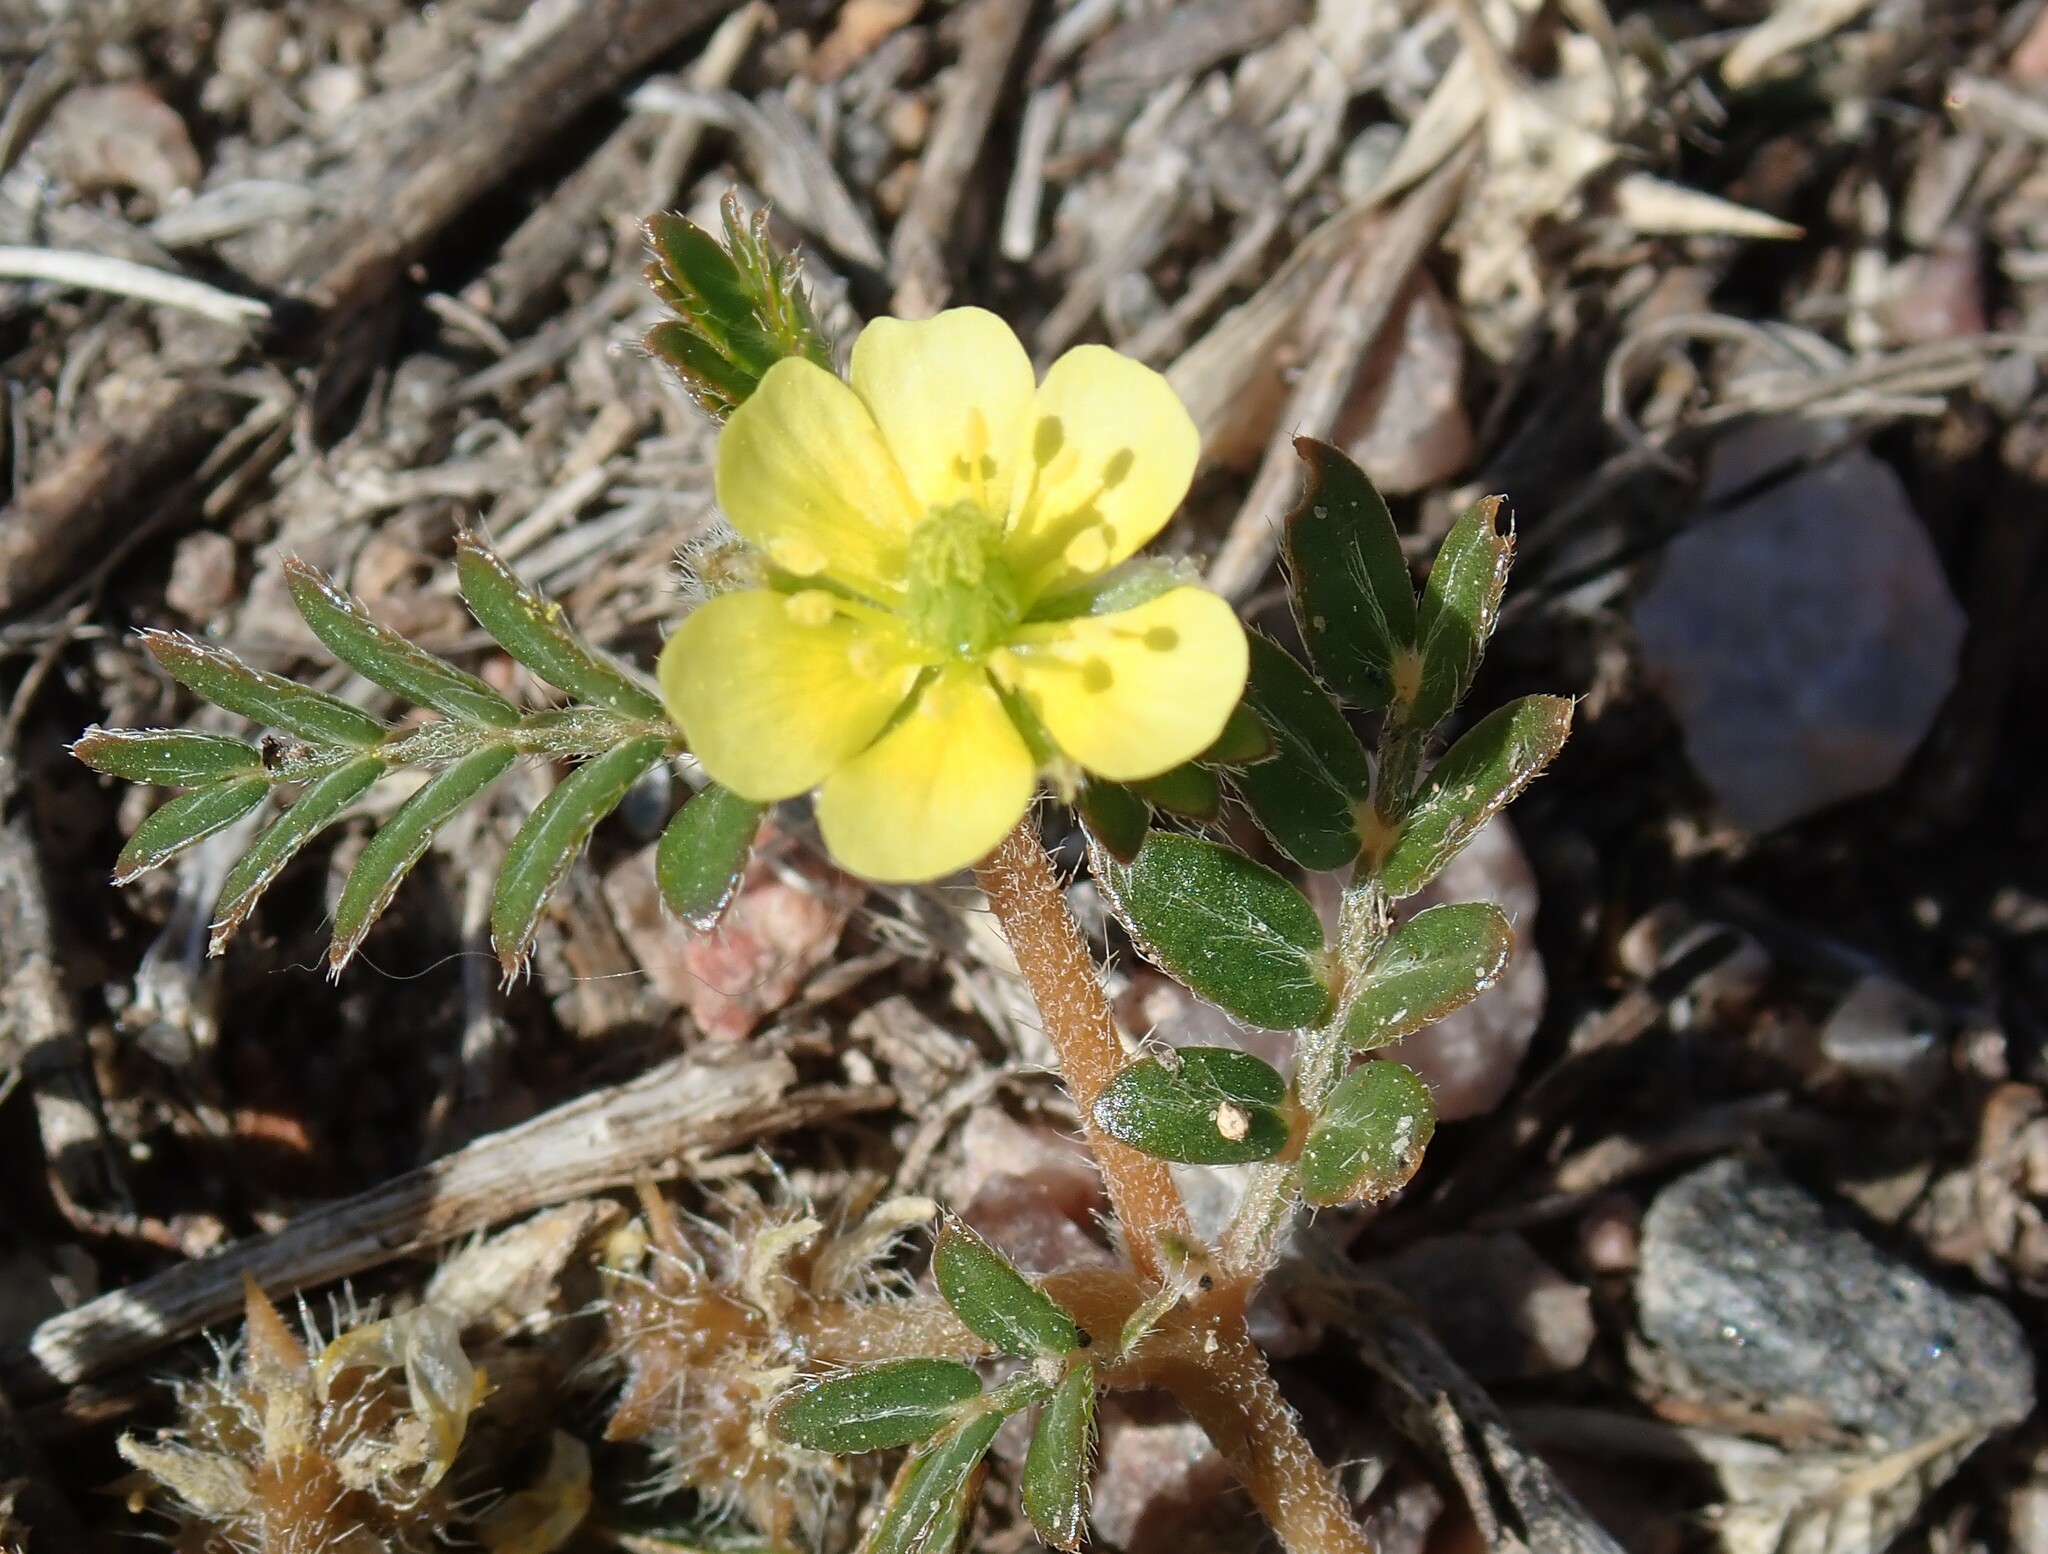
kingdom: Plantae
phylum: Tracheophyta
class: Magnoliopsida
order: Zygophyllales
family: Zygophyllaceae
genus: Tribulus
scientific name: Tribulus terrestris
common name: Puncturevine
